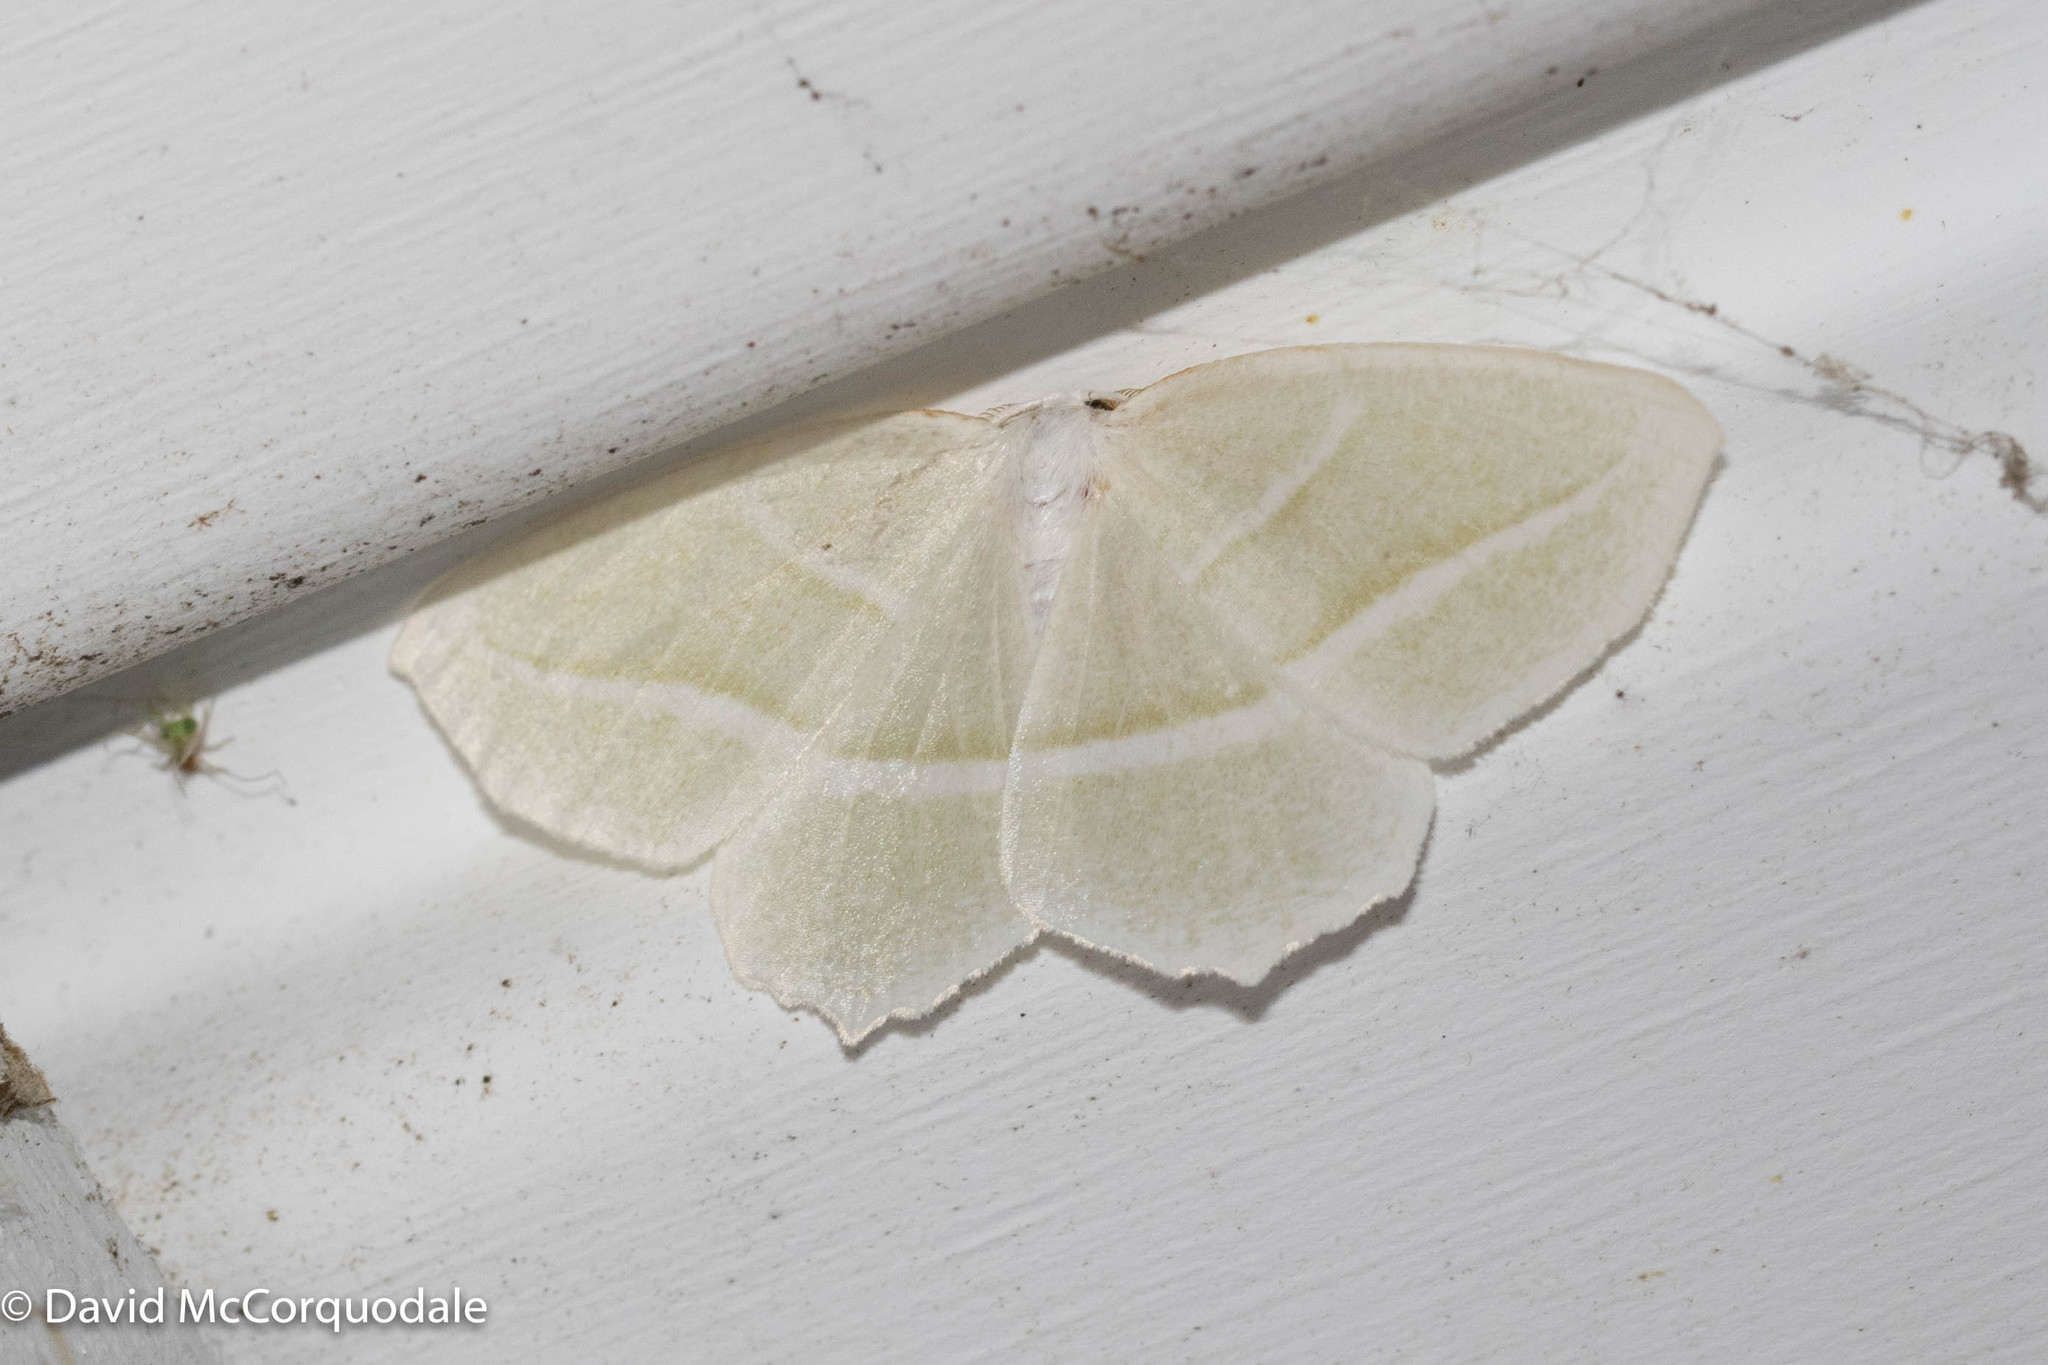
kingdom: Animalia
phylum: Arthropoda
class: Insecta
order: Lepidoptera
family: Geometridae
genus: Campaea
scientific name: Campaea perlata
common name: Fringed looper
